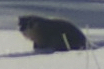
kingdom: Animalia
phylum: Chordata
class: Mammalia
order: Carnivora
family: Mustelidae
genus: Taxidea
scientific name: Taxidea taxus
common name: American badger
